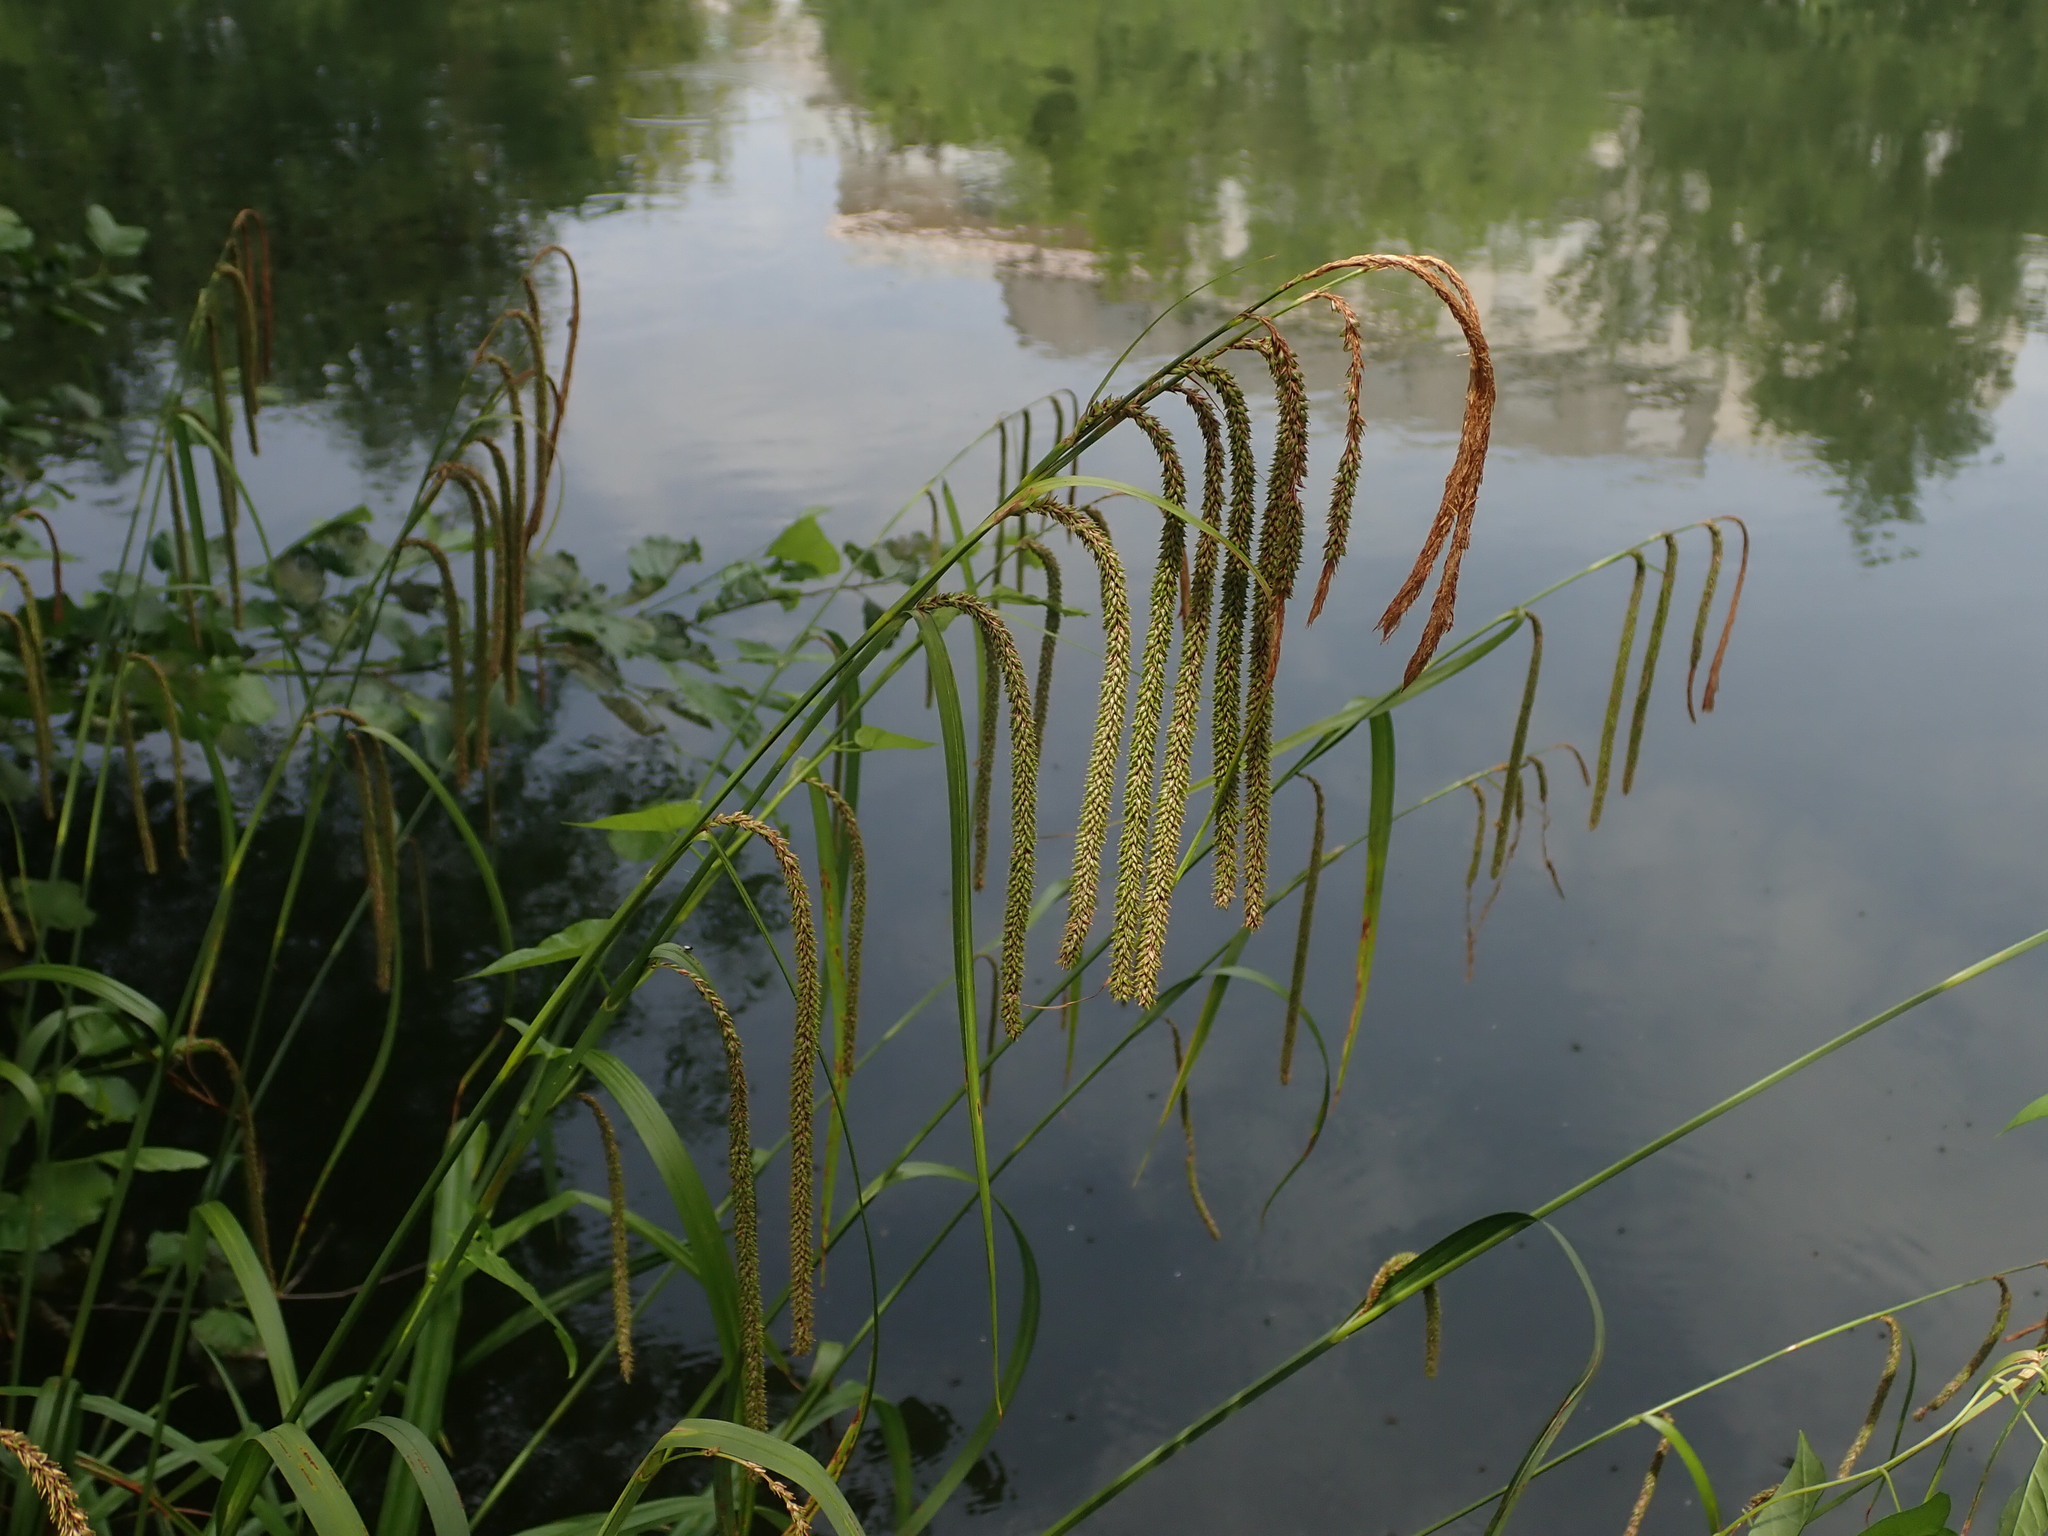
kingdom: Plantae
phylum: Tracheophyta
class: Liliopsida
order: Poales
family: Cyperaceae
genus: Carex
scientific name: Carex pendula
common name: Pendulous sedge
